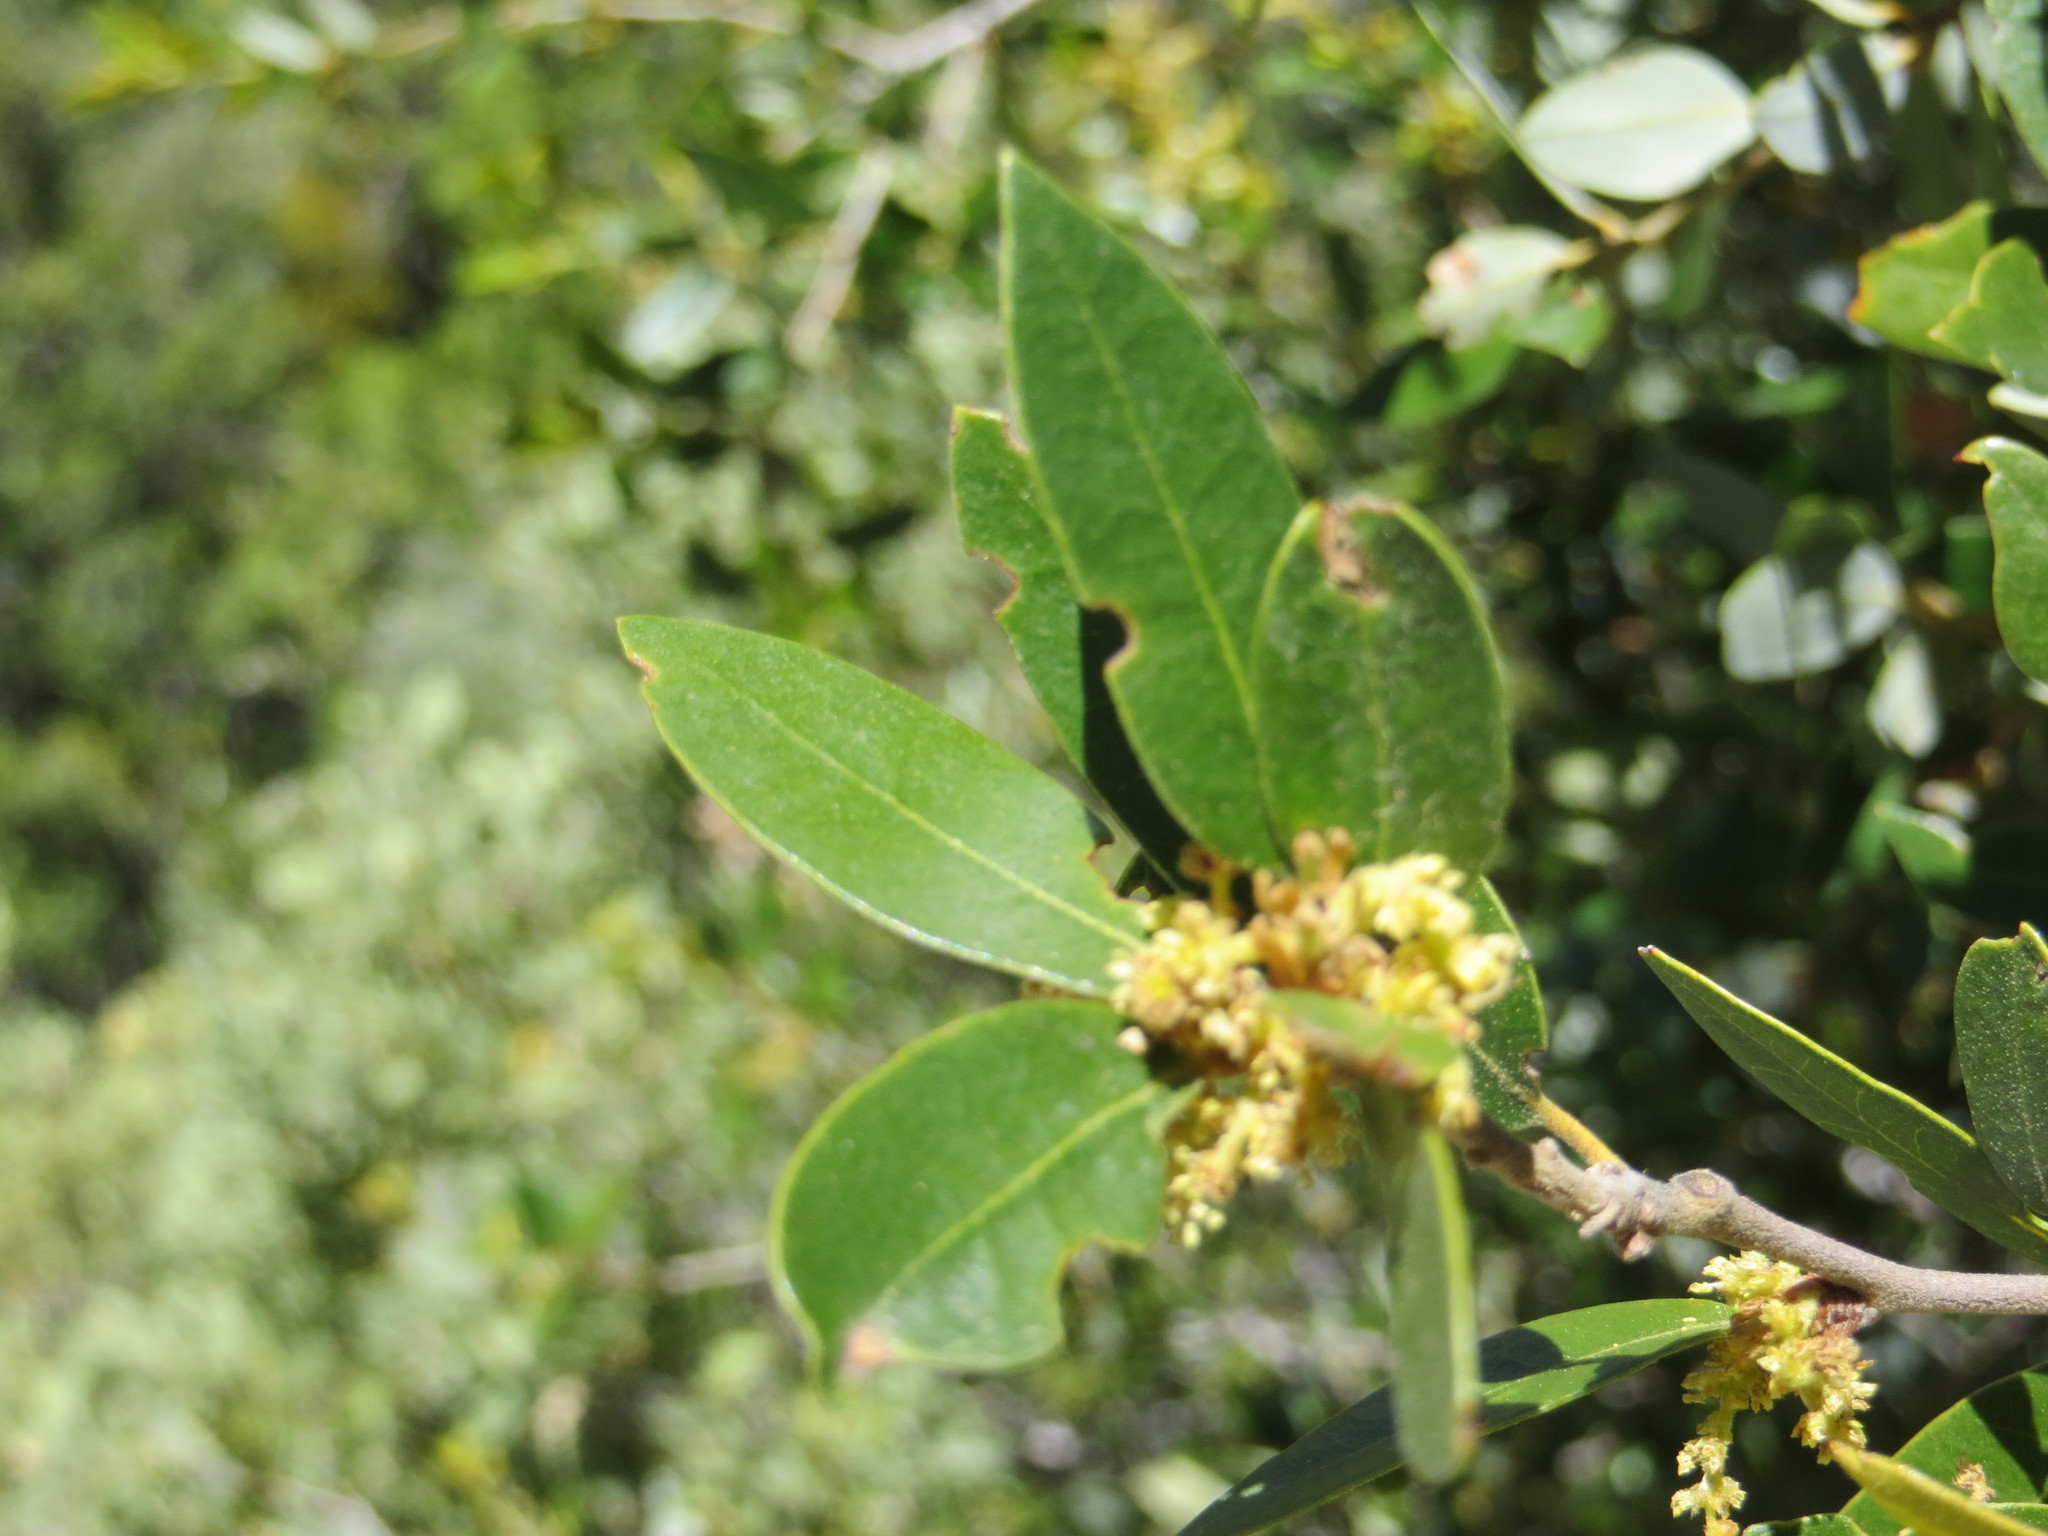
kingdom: Plantae
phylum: Tracheophyta
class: Magnoliopsida
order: Fagales
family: Fagaceae
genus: Quercus
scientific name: Quercus chrysolepis
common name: Canyon live oak
